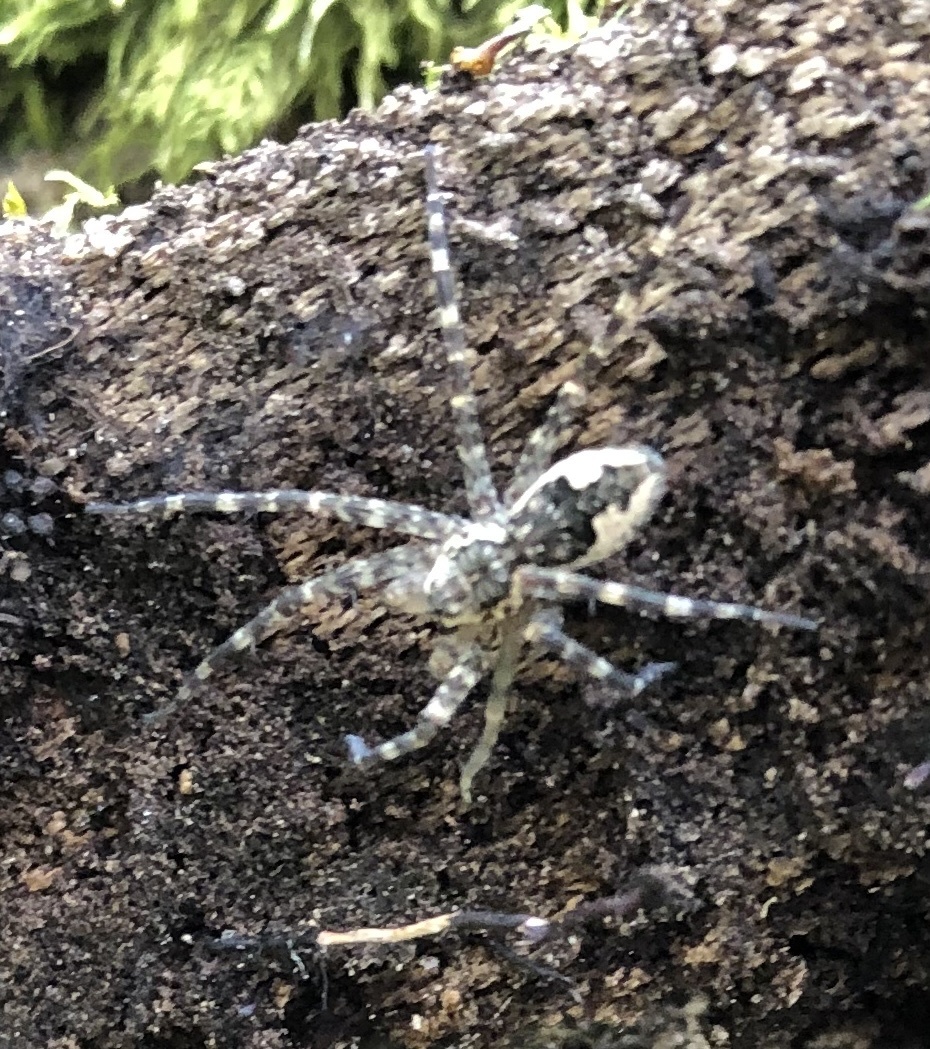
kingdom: Animalia
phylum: Arthropoda
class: Arachnida
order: Araneae
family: Pisauridae
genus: Dolomedes
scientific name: Dolomedes tenebrosus
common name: Dark fishing spider
